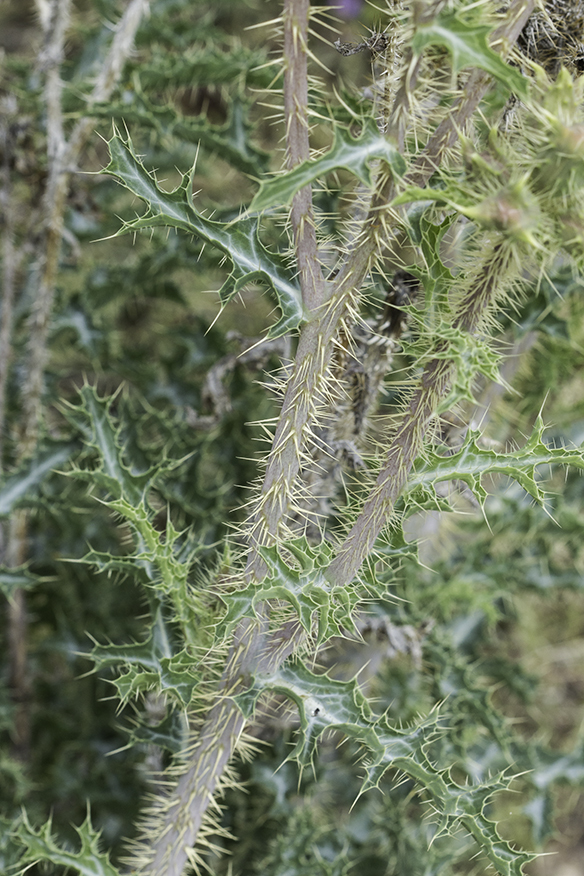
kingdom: Plantae
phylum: Tracheophyta
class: Magnoliopsida
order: Ranunculales
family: Papaveraceae
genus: Argemone
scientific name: Argemone pleiacantha
